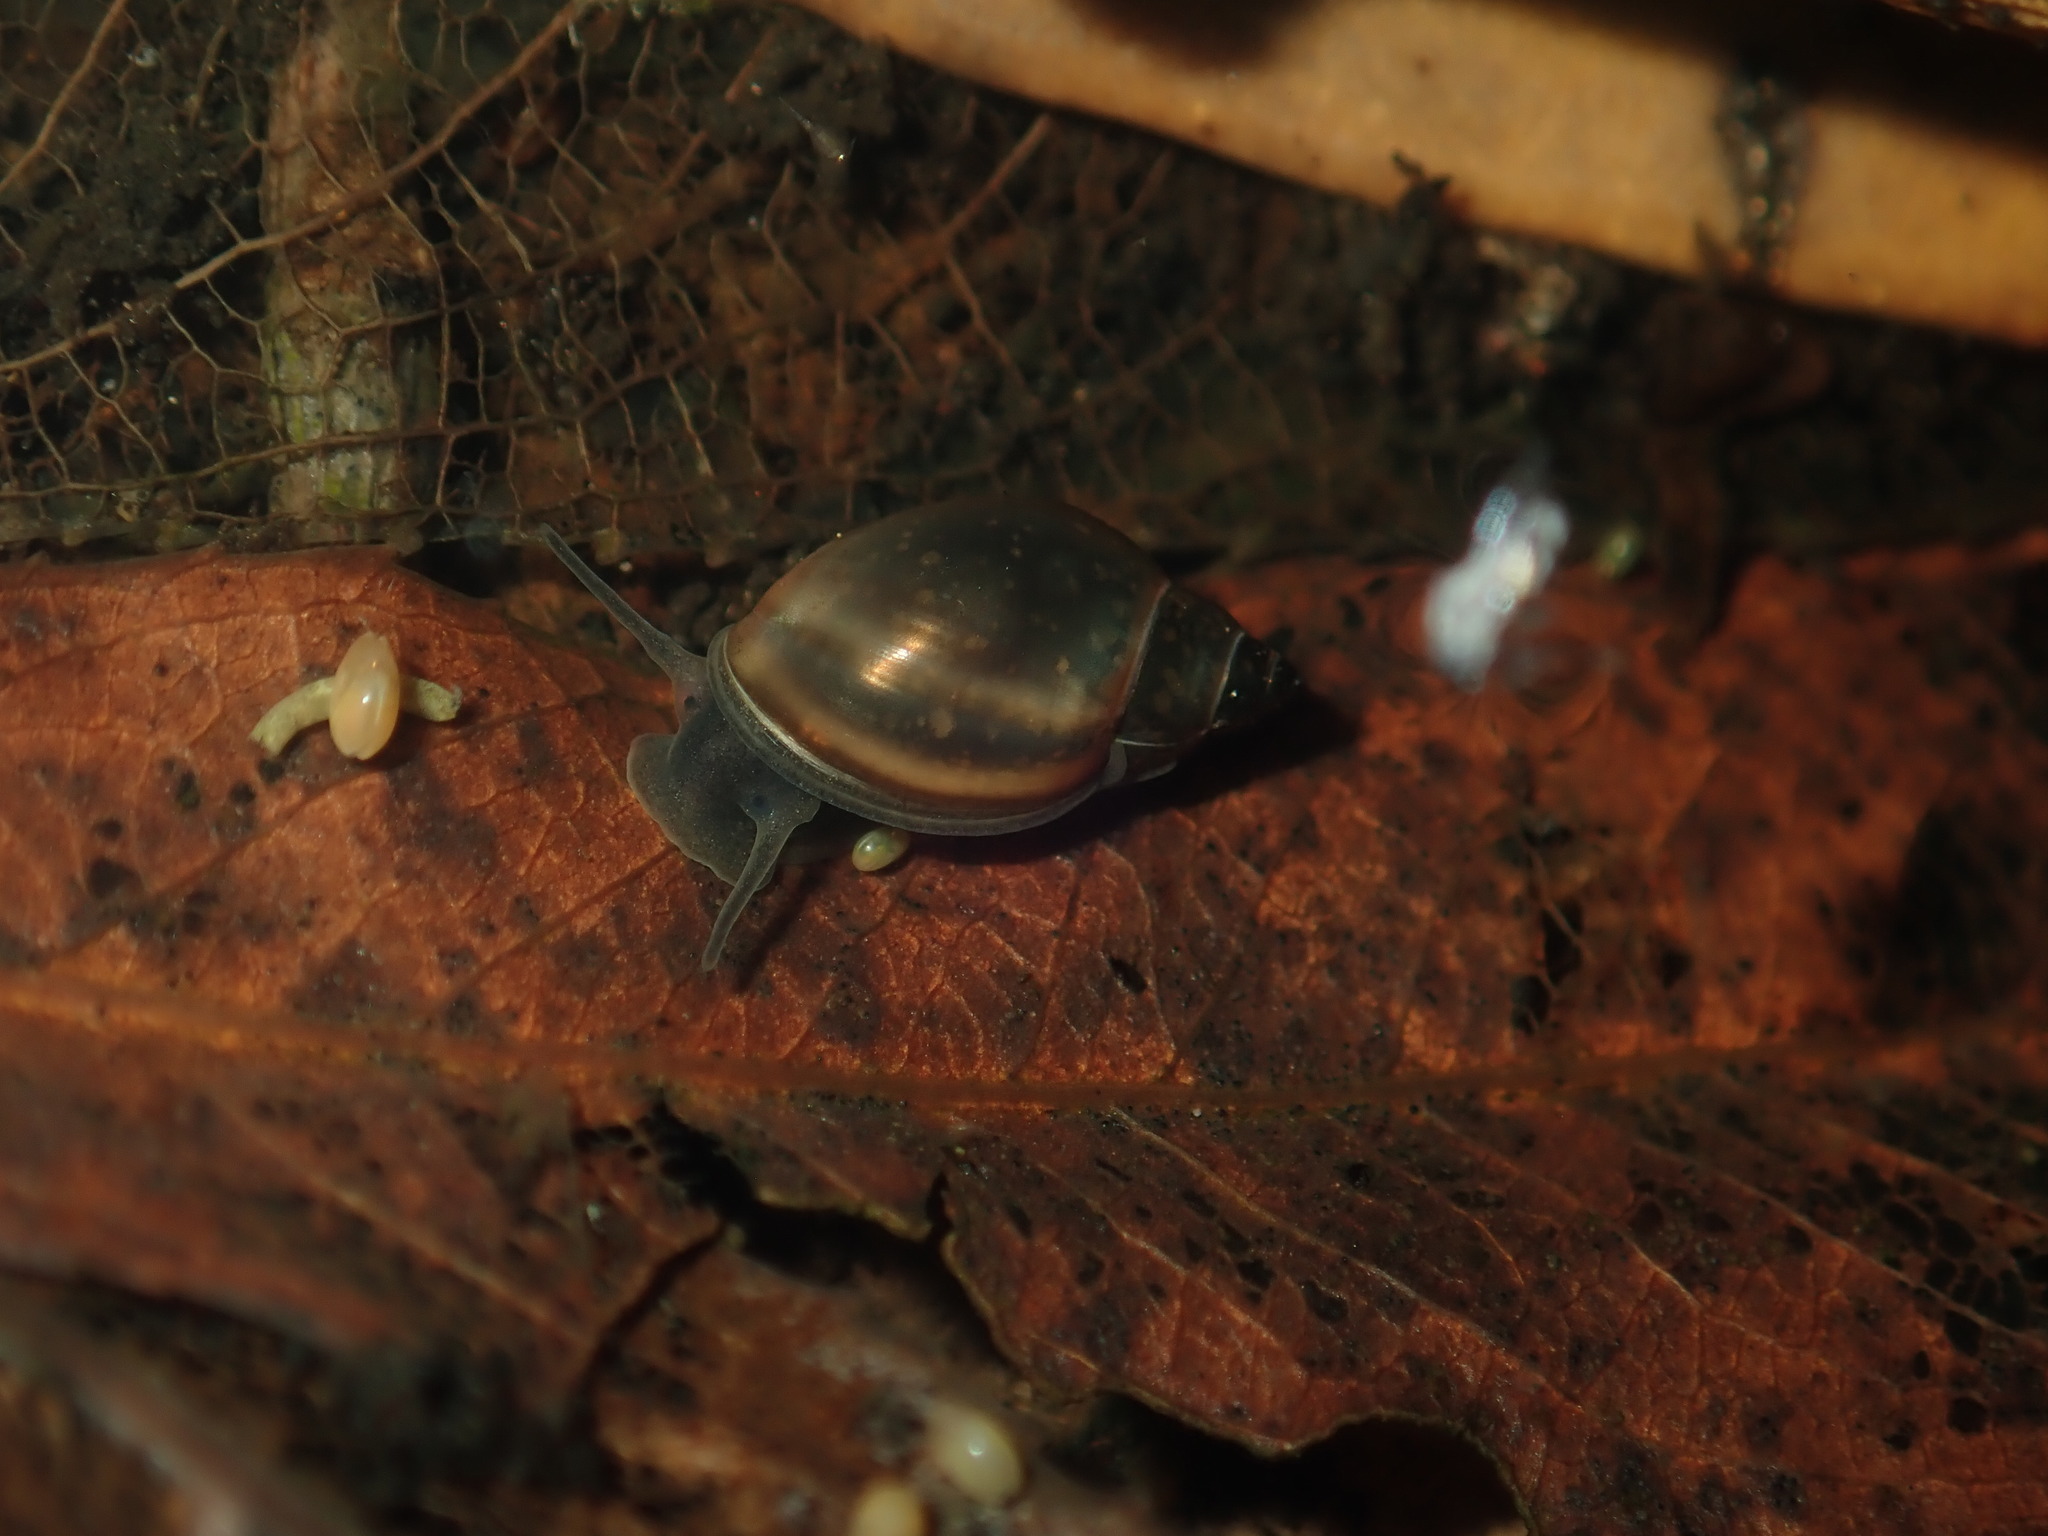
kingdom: Animalia
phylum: Mollusca
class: Gastropoda
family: Physidae
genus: Physella
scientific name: Physella acuta
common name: European physa
